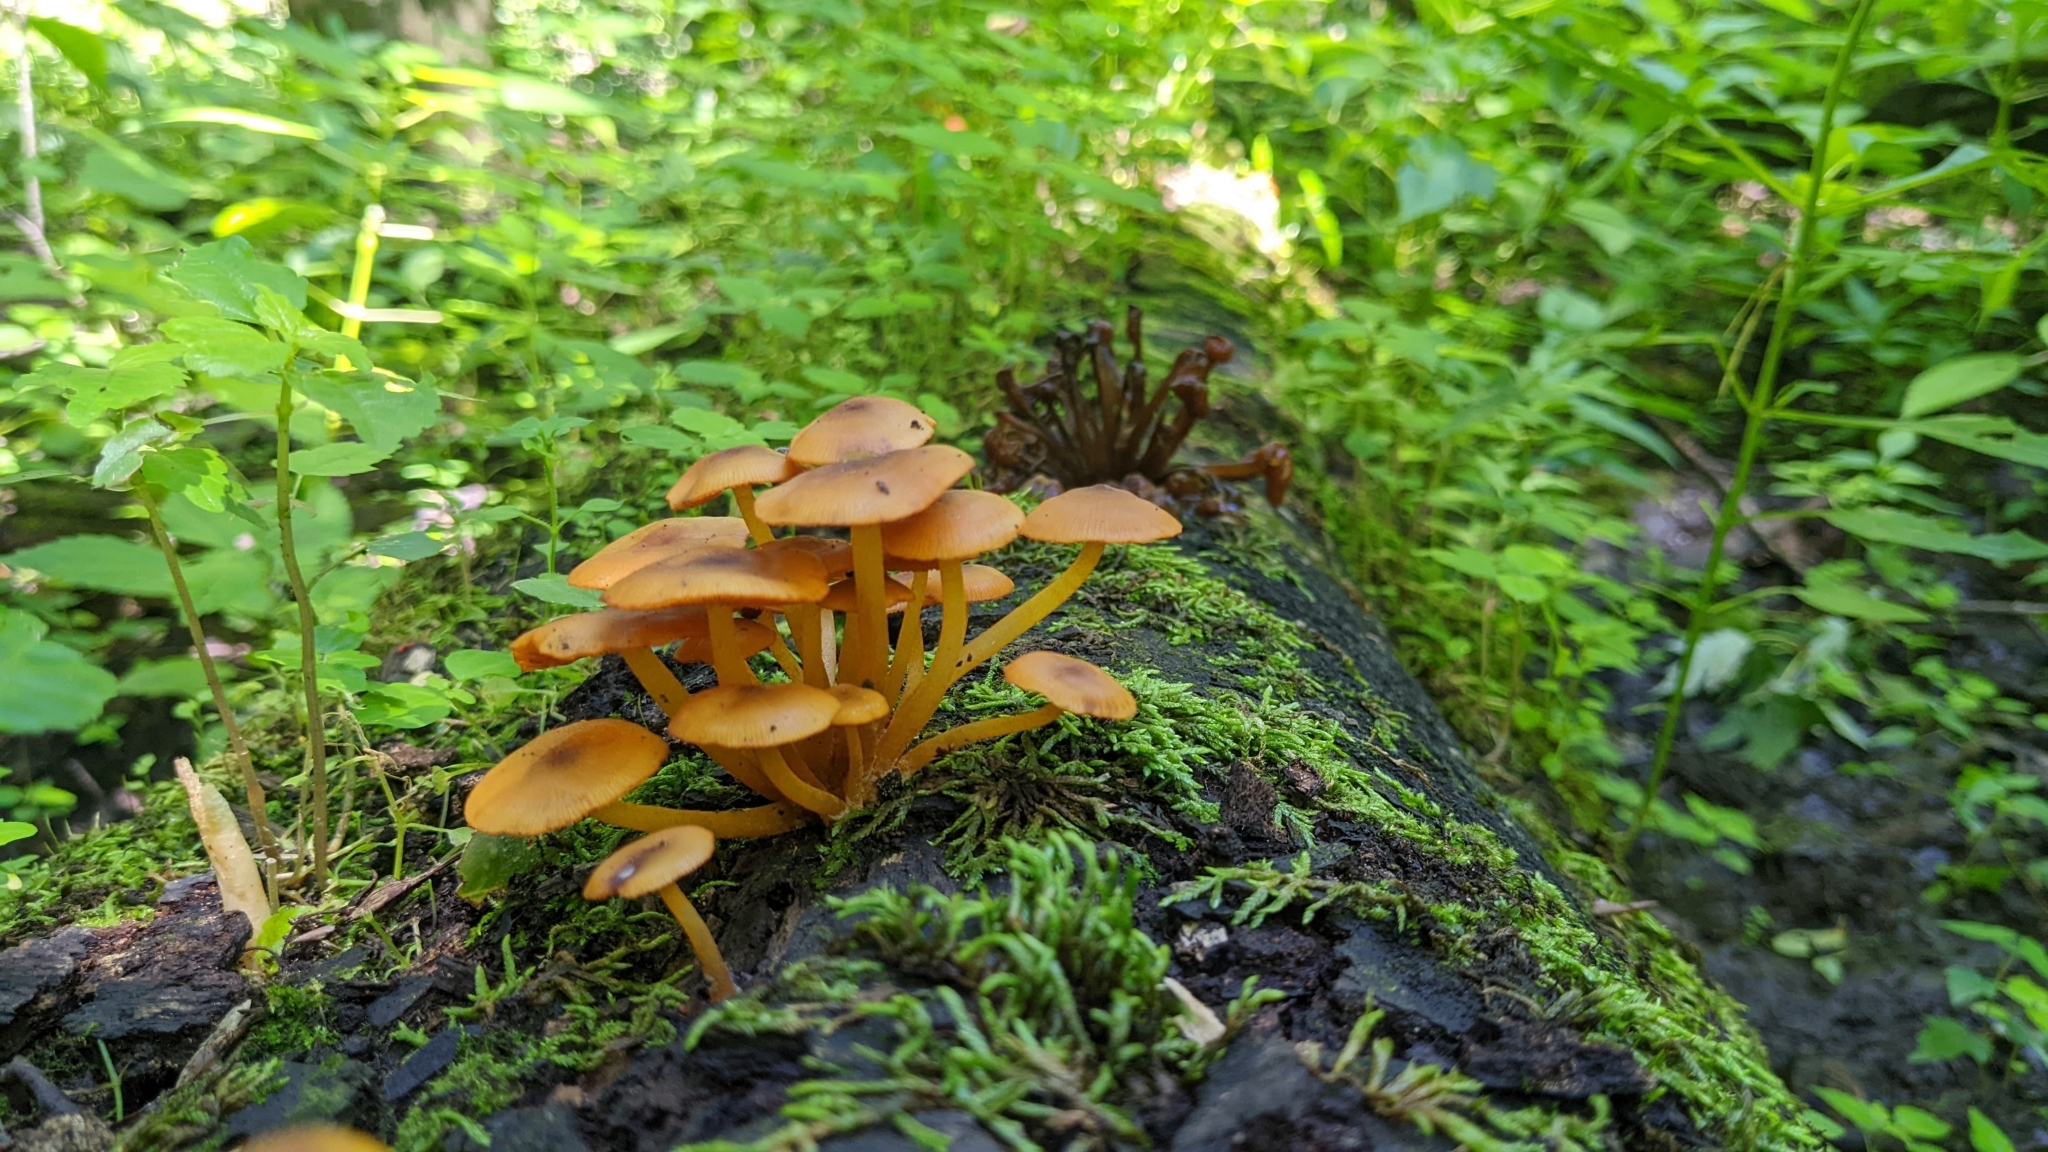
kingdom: Fungi
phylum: Basidiomycota
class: Agaricomycetes
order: Agaricales
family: Mycenaceae
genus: Mycena
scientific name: Mycena leaiana
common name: Orange mycena
